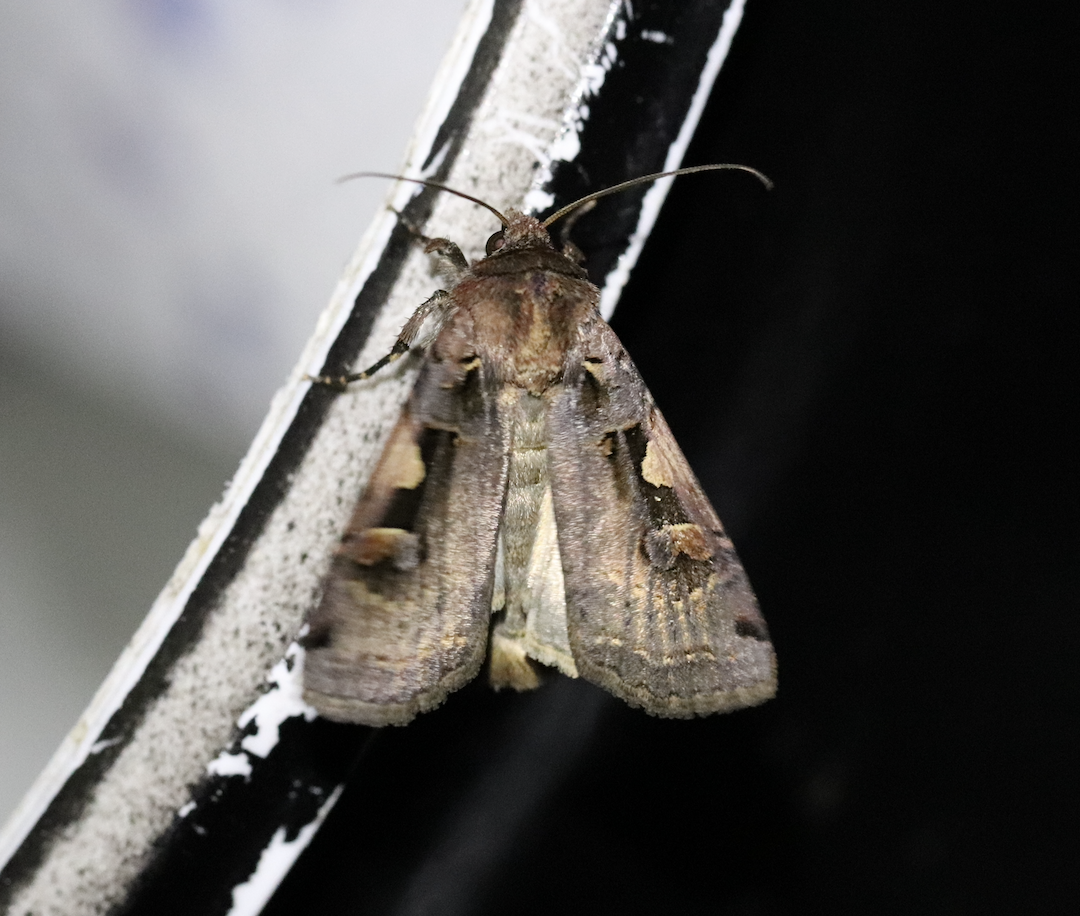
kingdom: Animalia
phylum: Arthropoda
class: Insecta
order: Lepidoptera
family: Noctuidae
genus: Xestia
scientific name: Xestia c-nigrum
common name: Setaceous hebrew character
